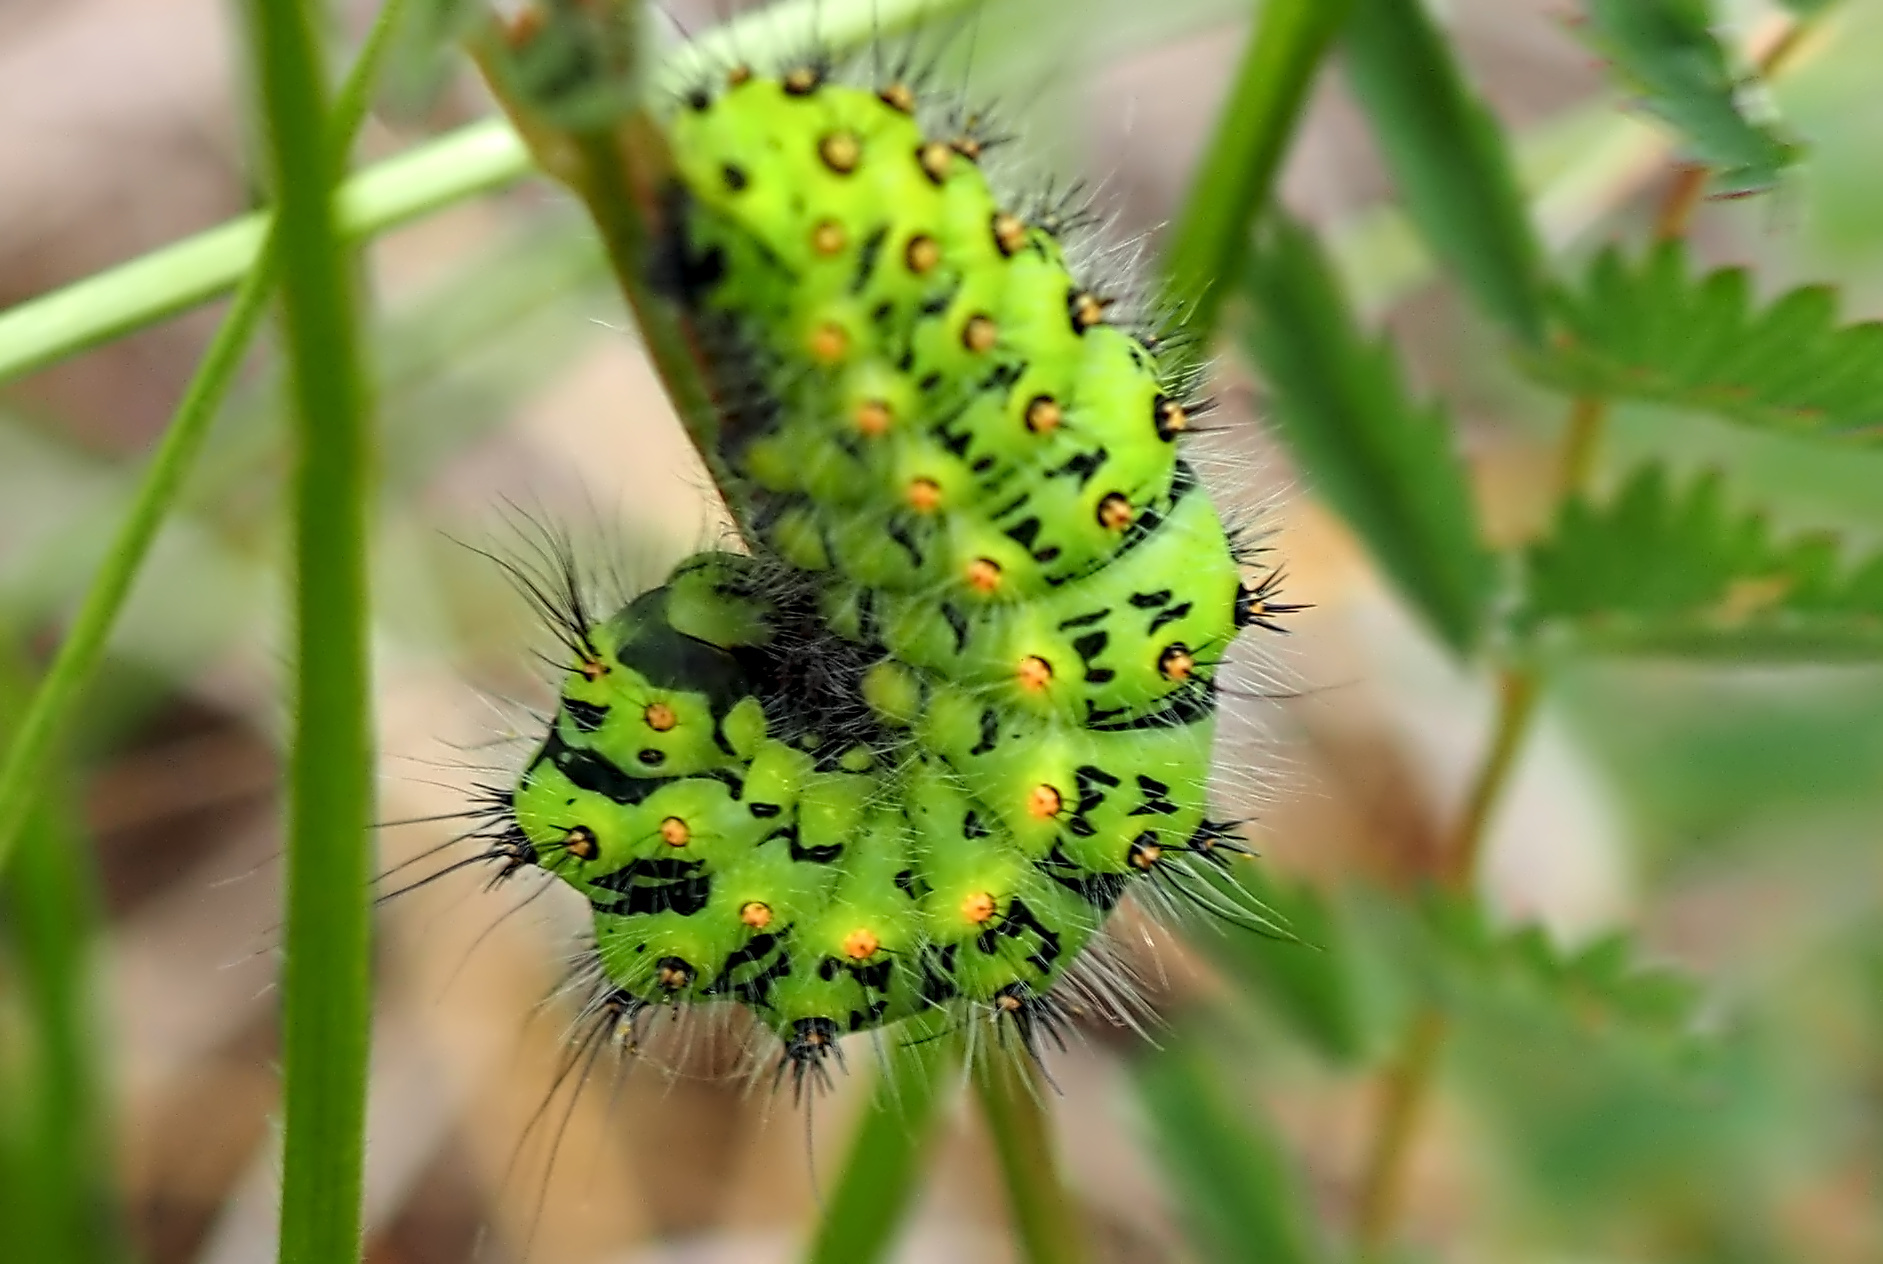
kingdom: Animalia
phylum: Arthropoda
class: Insecta
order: Lepidoptera
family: Saturniidae
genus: Saturnia
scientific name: Saturnia pavonia
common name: Emperor moth
